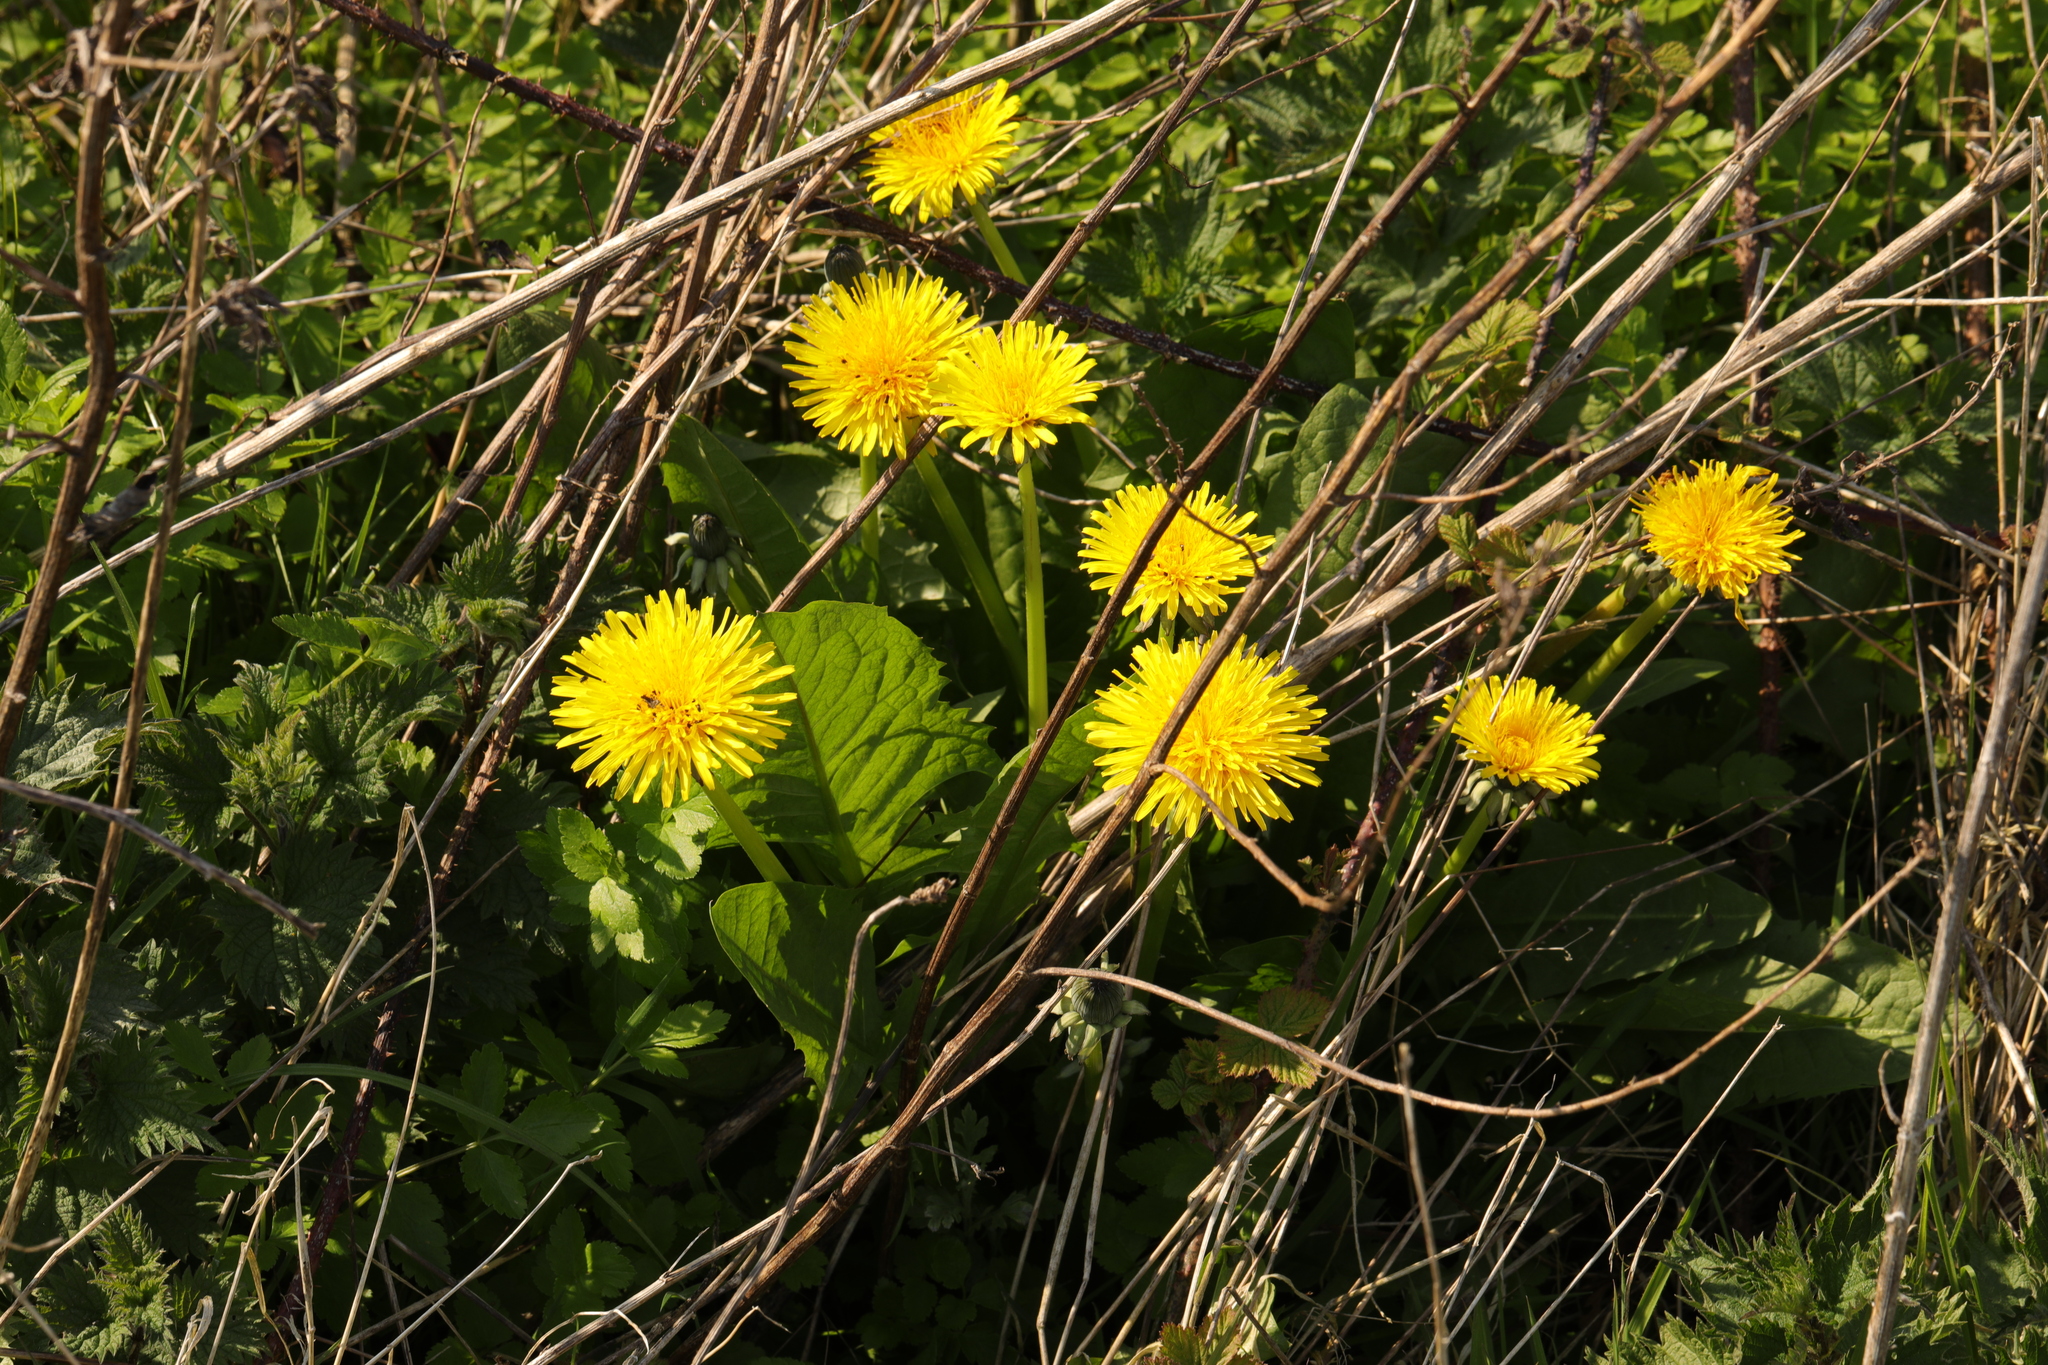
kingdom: Plantae
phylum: Tracheophyta
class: Magnoliopsida
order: Asterales
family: Asteraceae
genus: Taraxacum
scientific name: Taraxacum officinale
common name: Common dandelion
